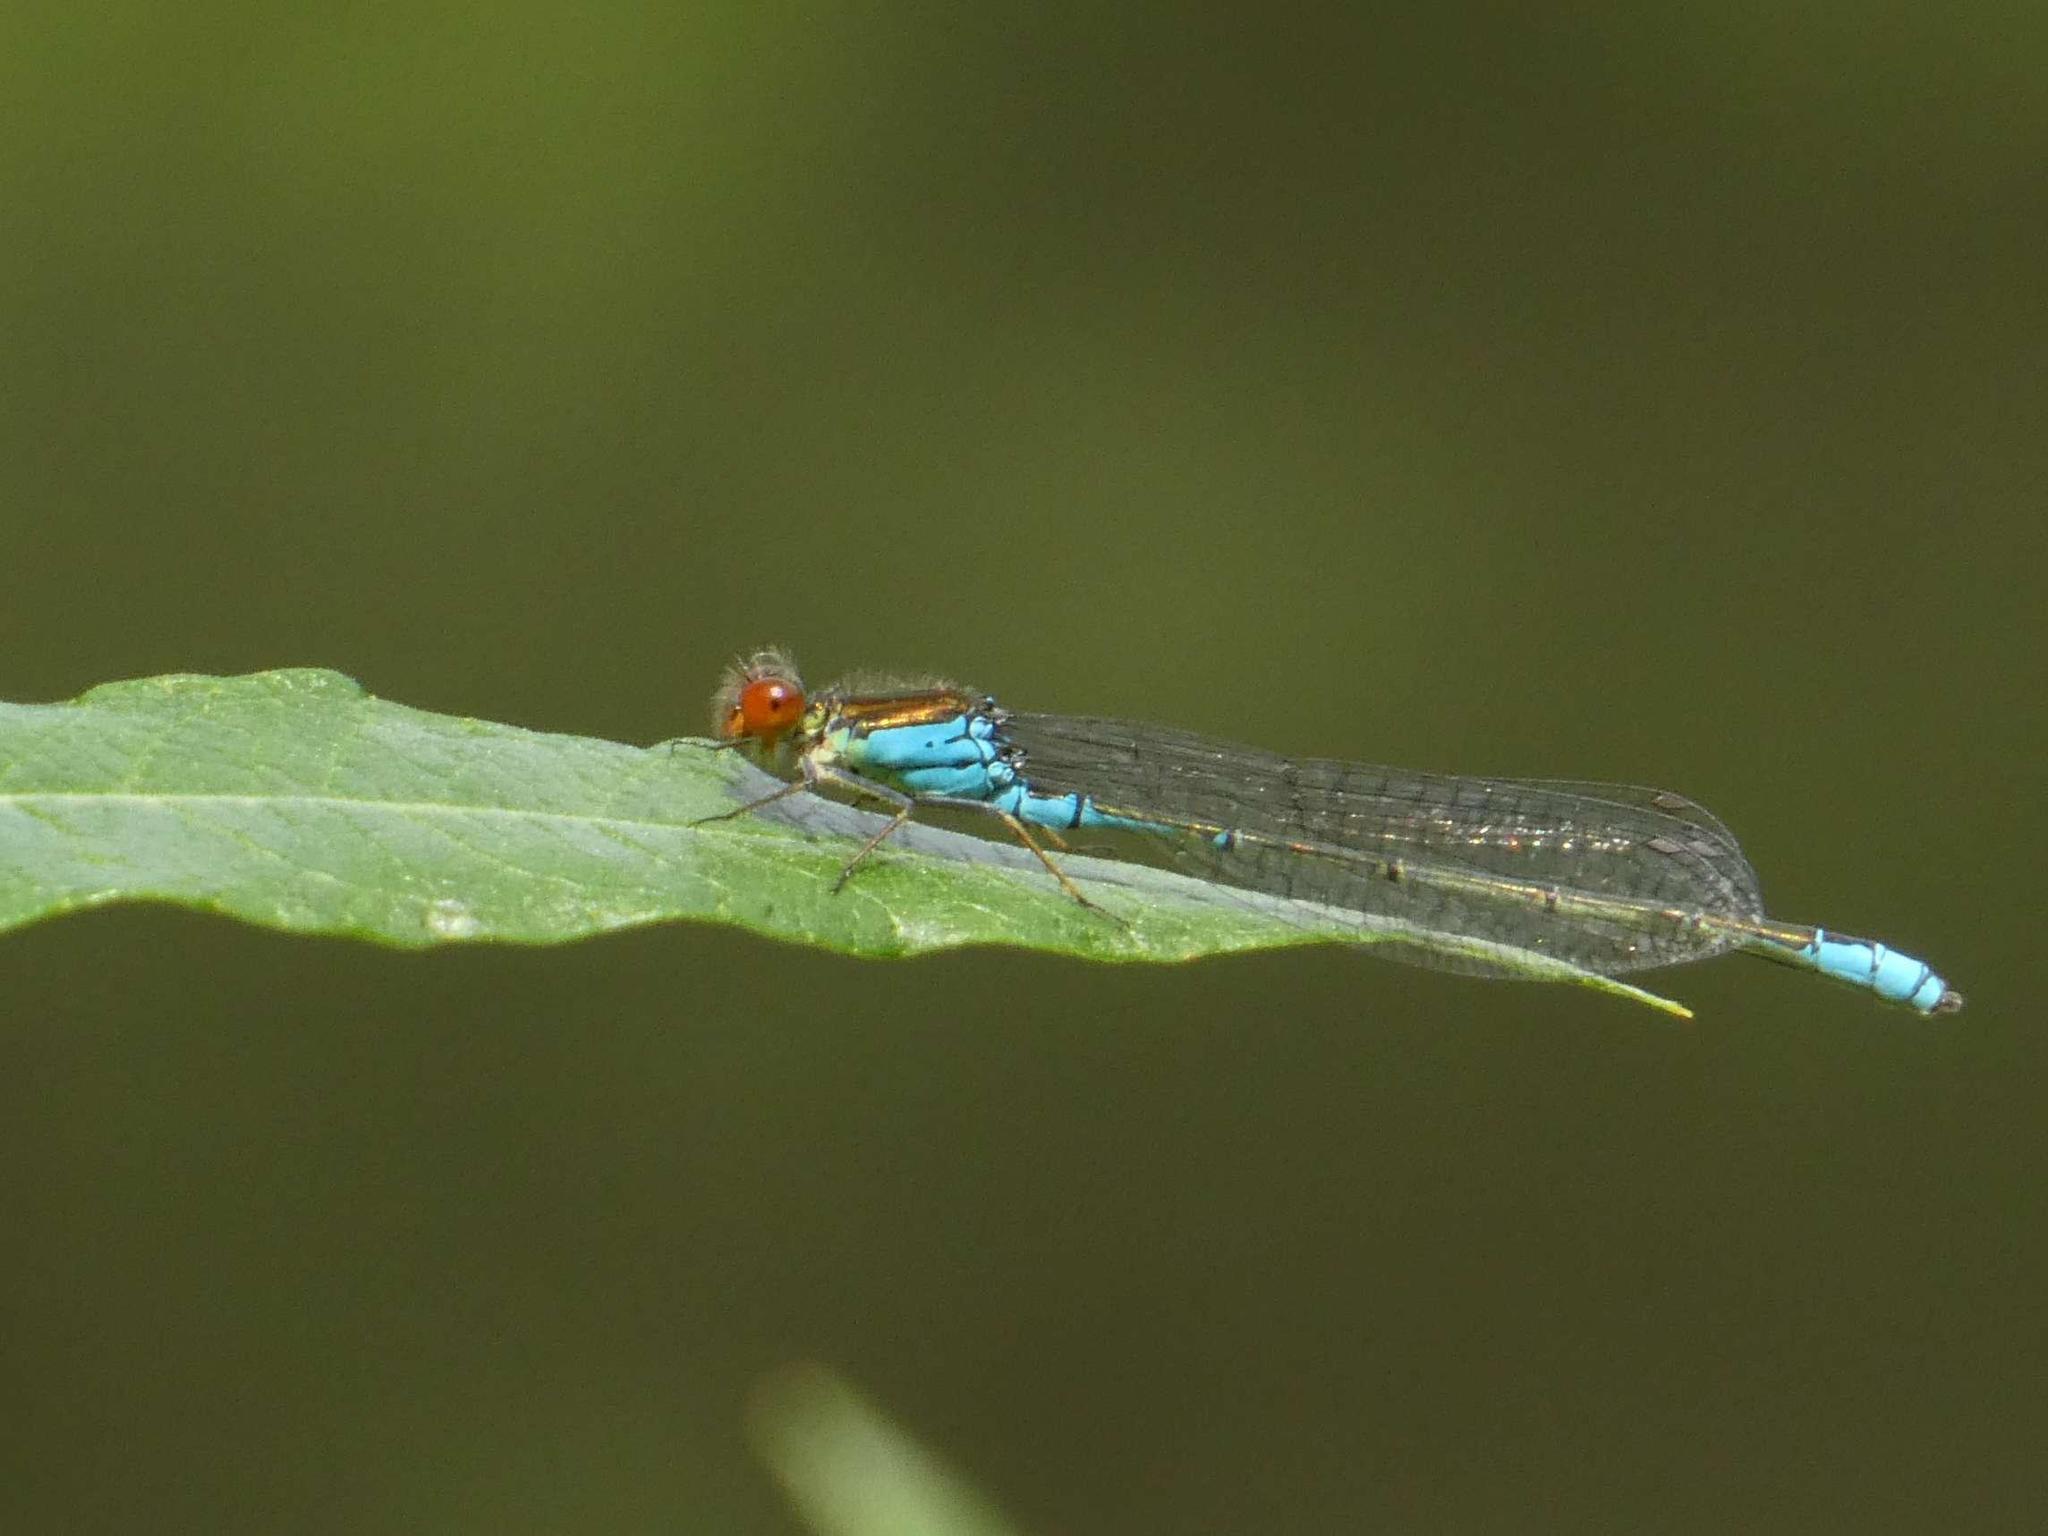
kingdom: Animalia
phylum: Arthropoda
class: Insecta
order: Odonata
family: Coenagrionidae
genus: Erythromma
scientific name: Erythromma viridulum
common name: Small red-eyed damselfly
